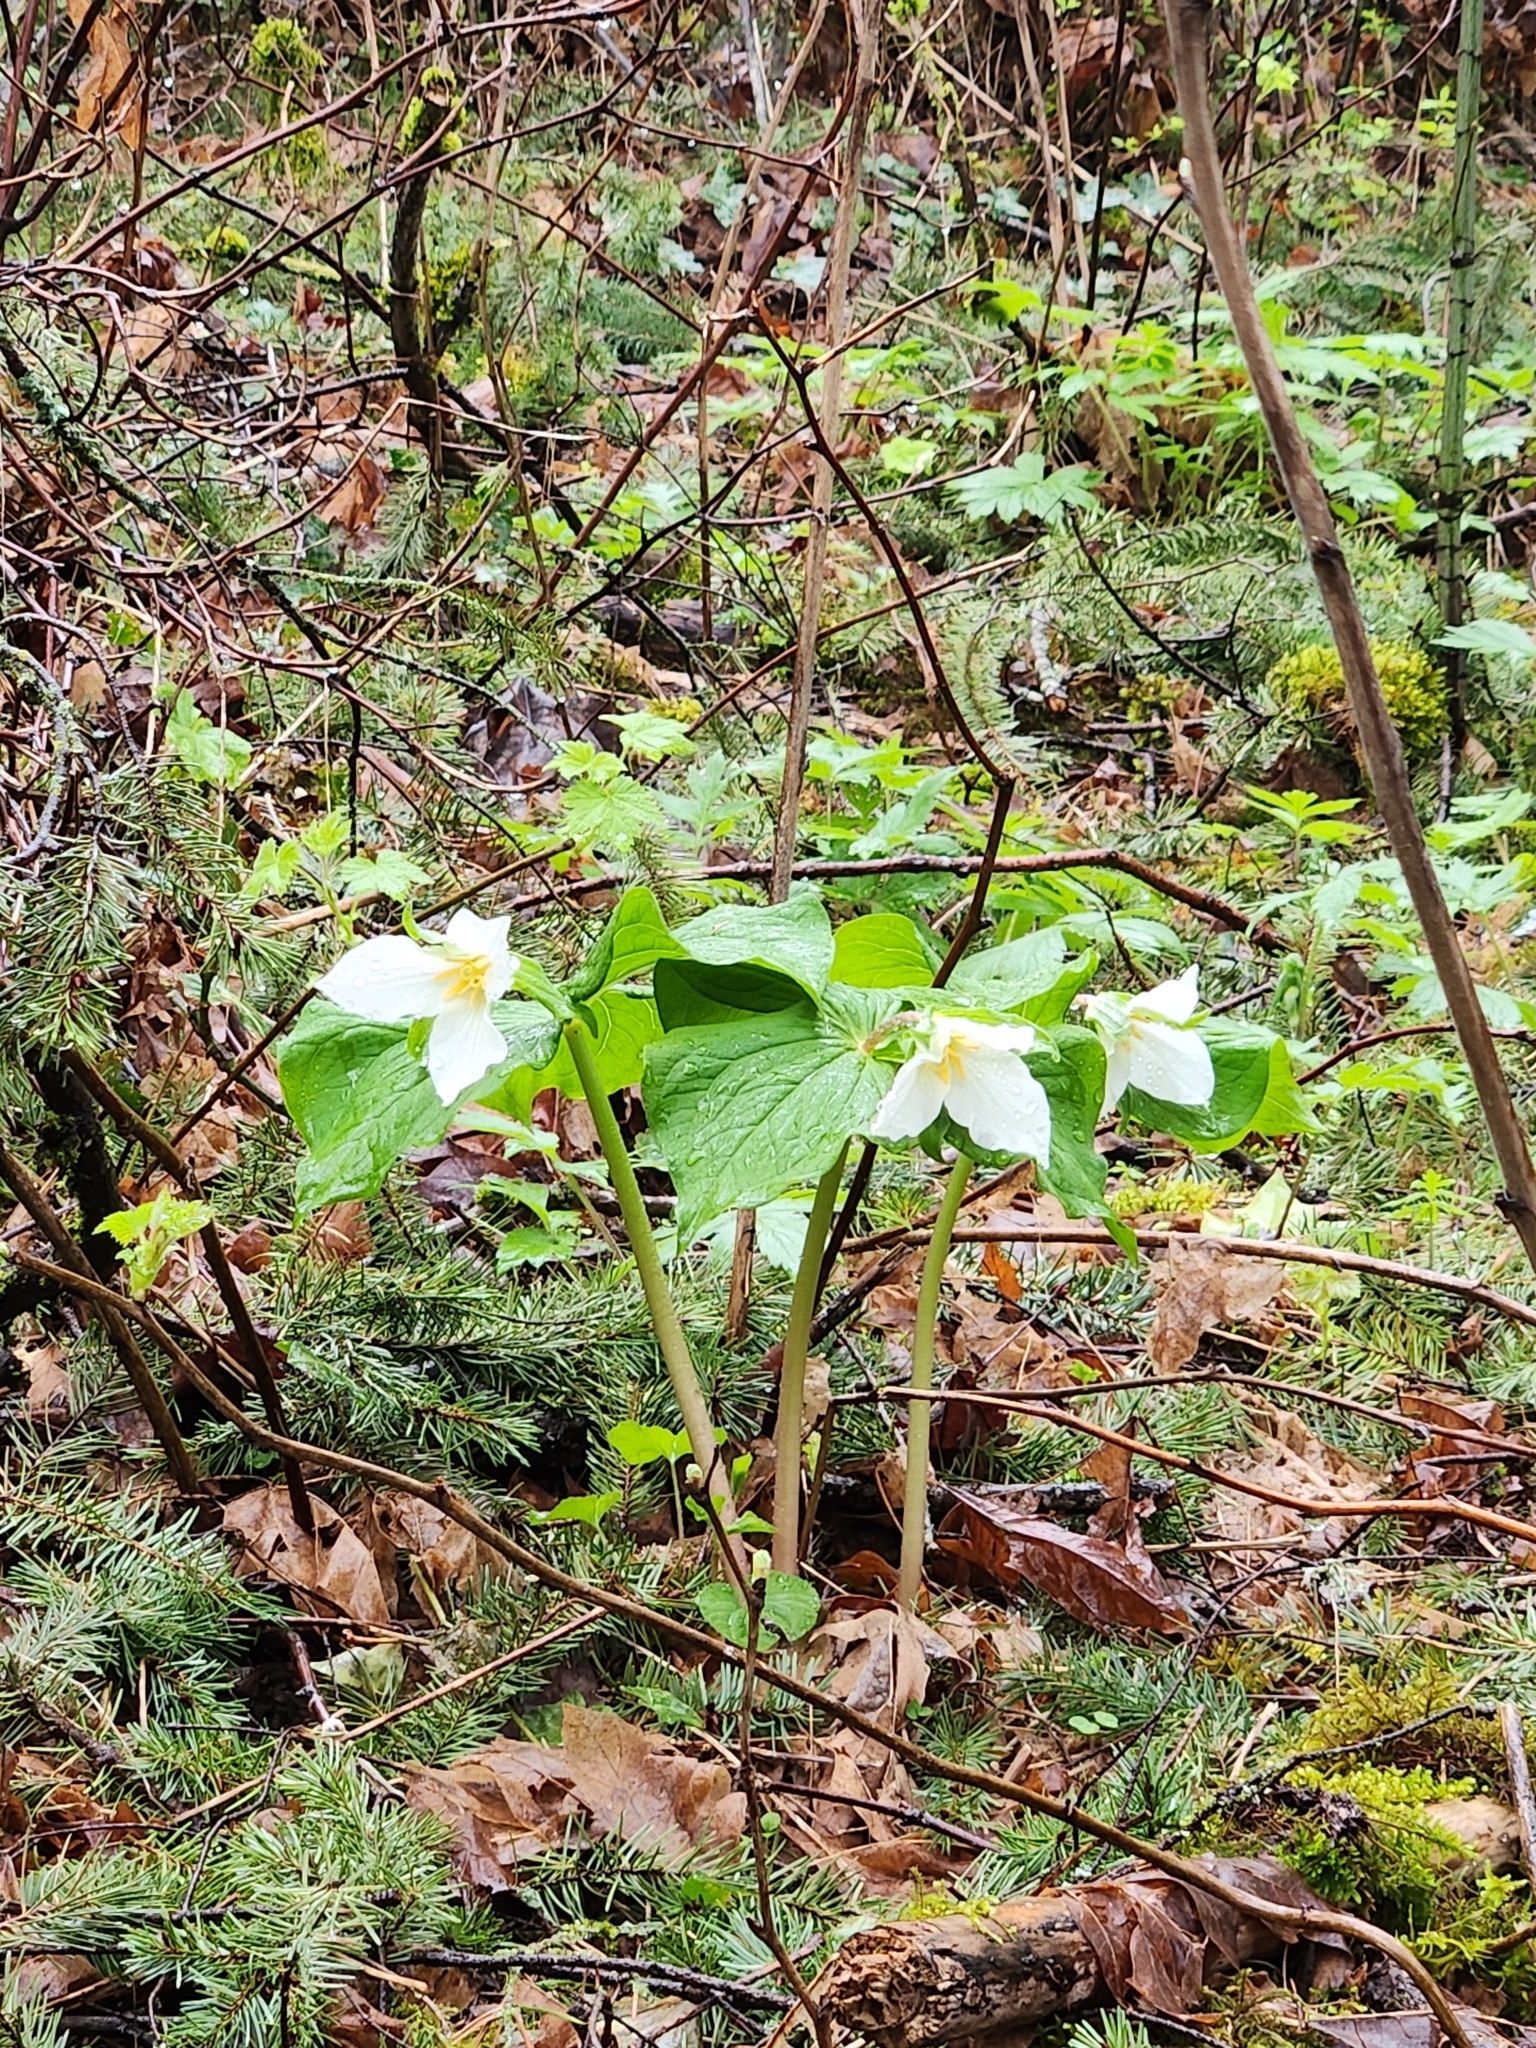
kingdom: Plantae
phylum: Tracheophyta
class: Liliopsida
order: Liliales
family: Melanthiaceae
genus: Trillium
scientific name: Trillium ovatum
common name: Pacific trillium
